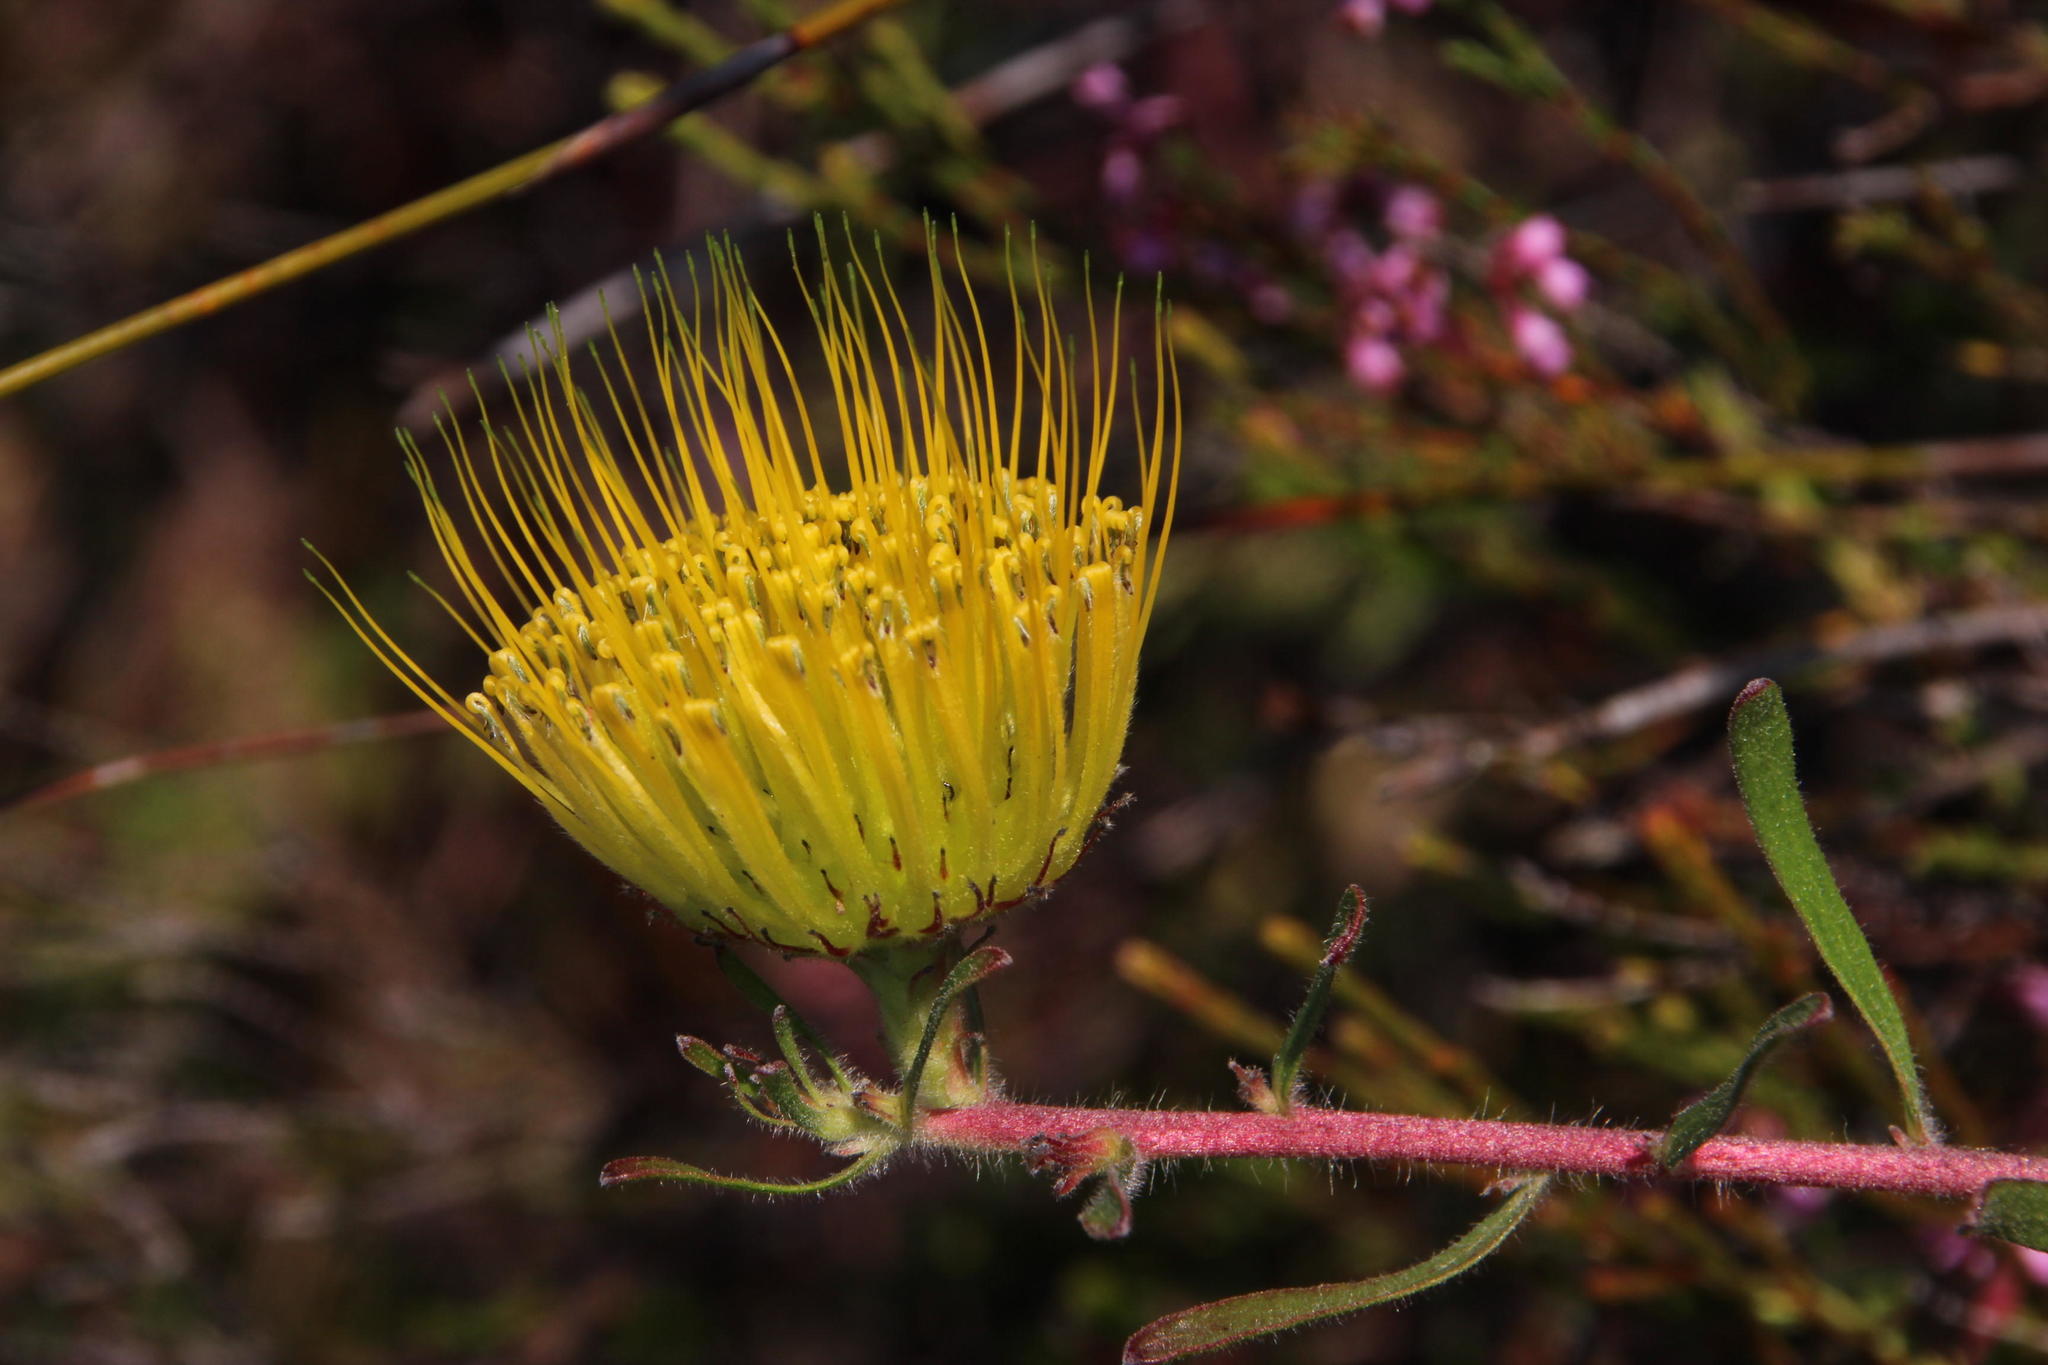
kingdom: Plantae
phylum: Tracheophyta
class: Magnoliopsida
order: Proteales
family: Proteaceae
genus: Leucospermum
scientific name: Leucospermum gracile
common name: Hermanus pincushion
